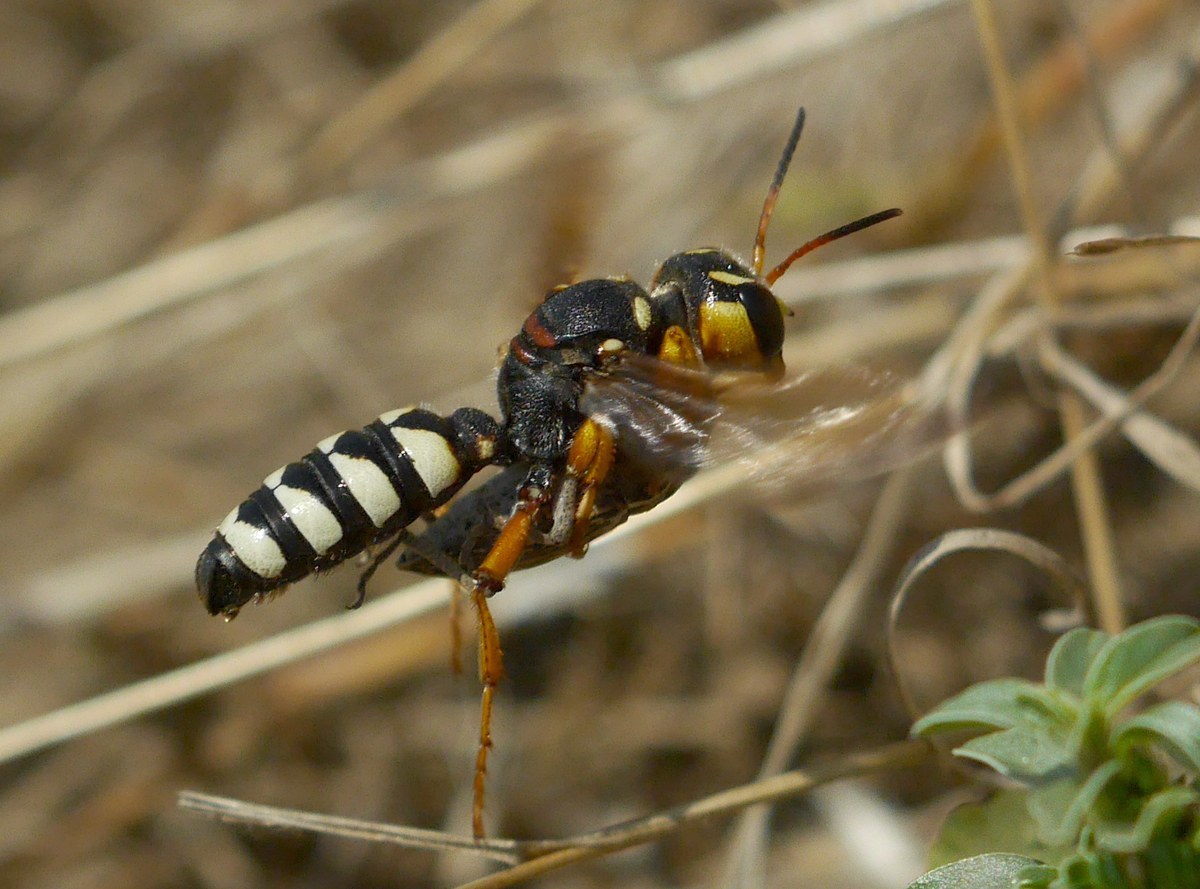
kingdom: Animalia
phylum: Arthropoda
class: Insecta
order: Hymenoptera
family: Crabronidae
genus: Cerceris
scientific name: Cerceris tuberculata
